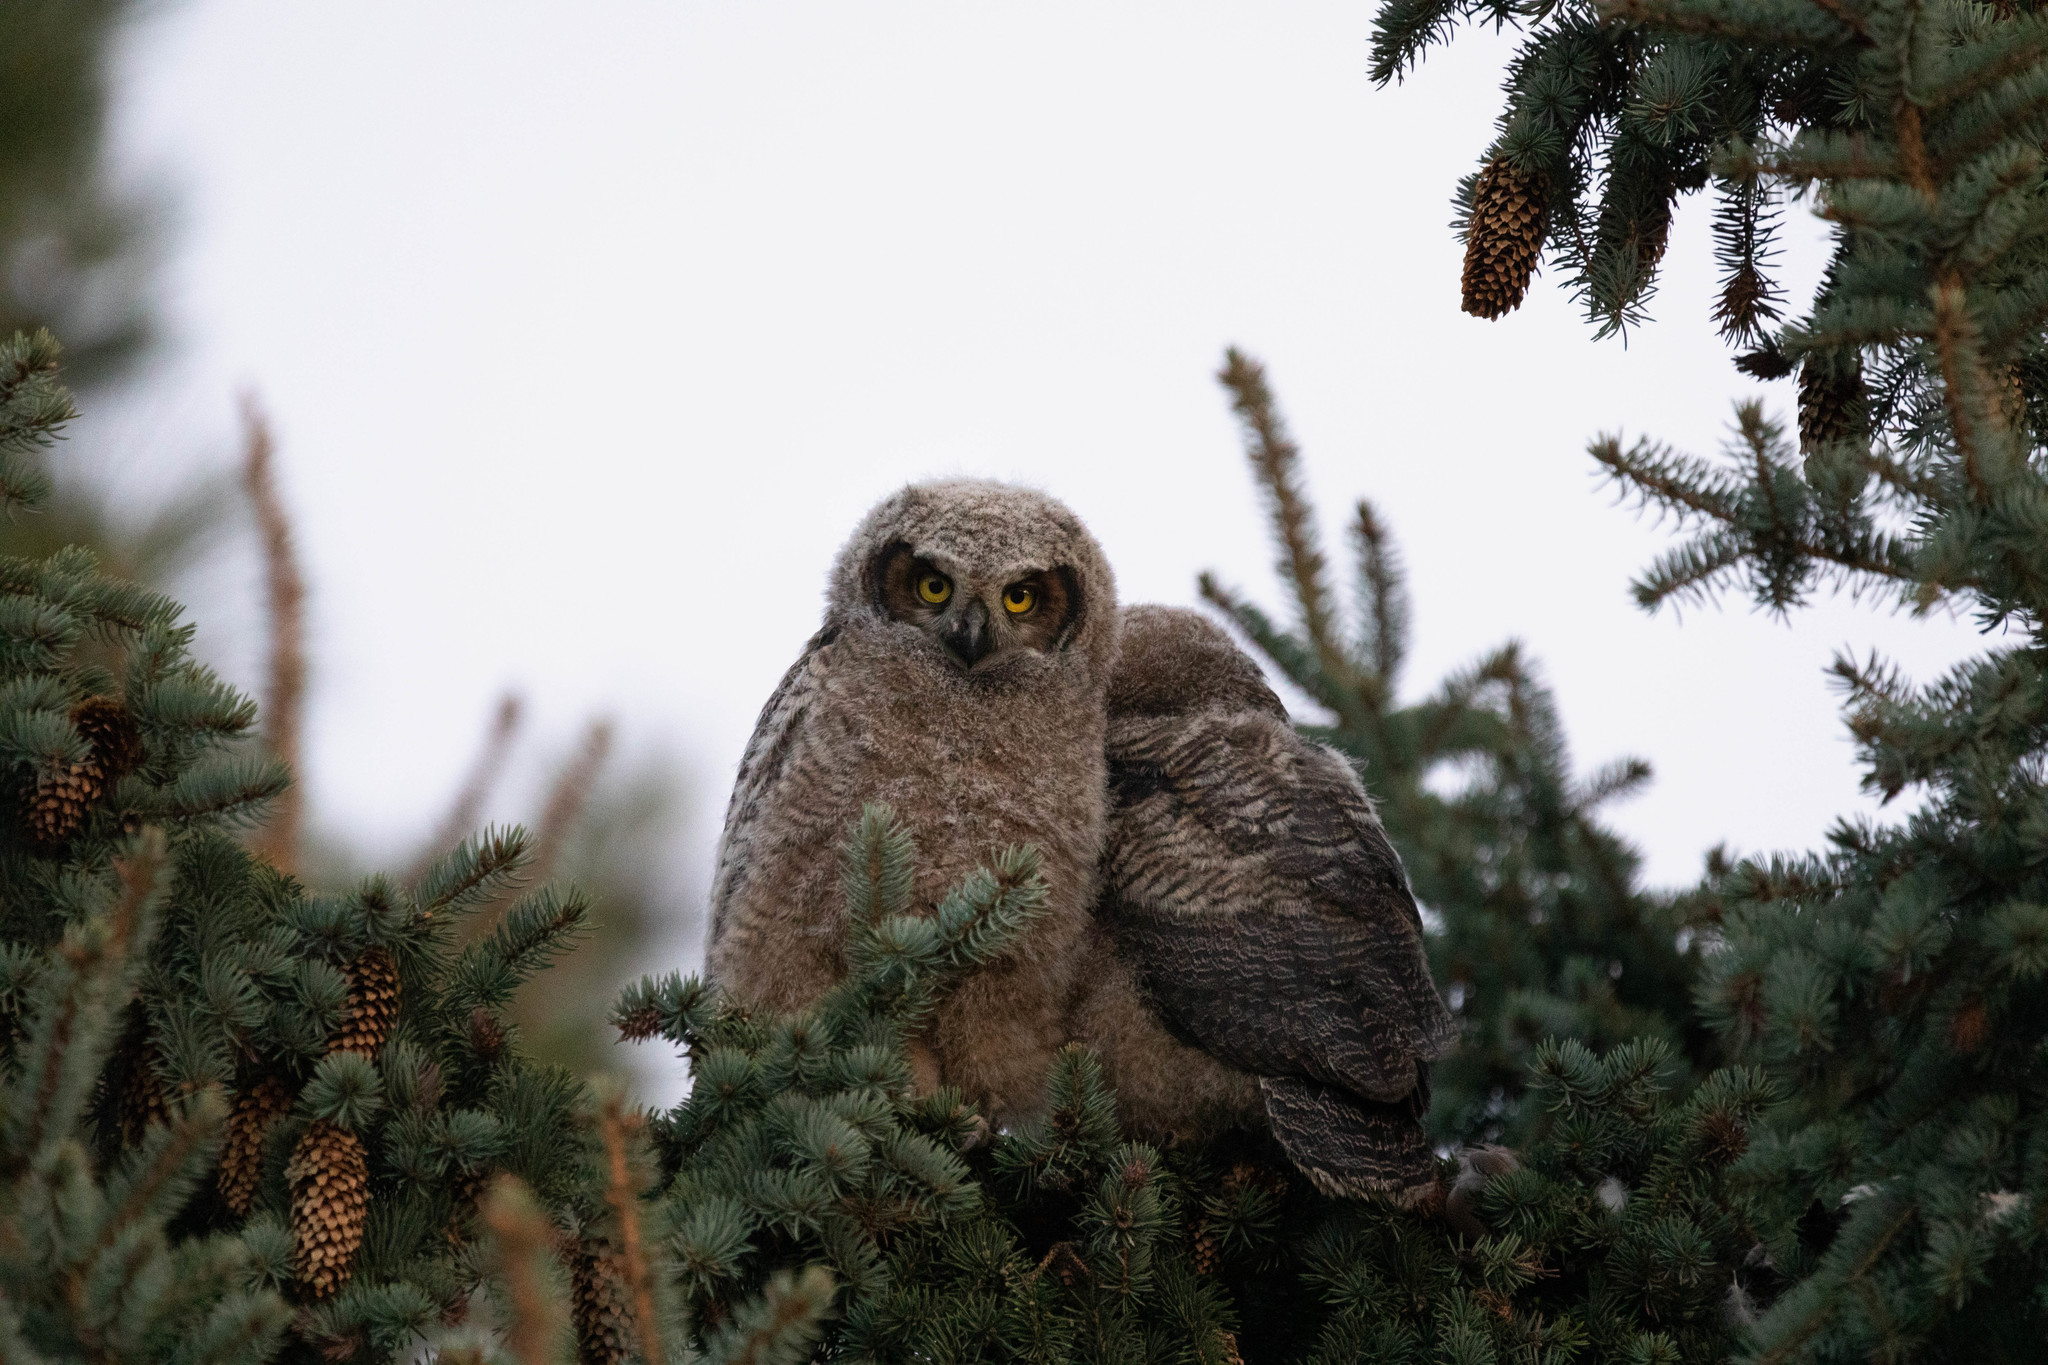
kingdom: Animalia
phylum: Chordata
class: Aves
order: Strigiformes
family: Strigidae
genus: Bubo
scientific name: Bubo virginianus
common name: Great horned owl
